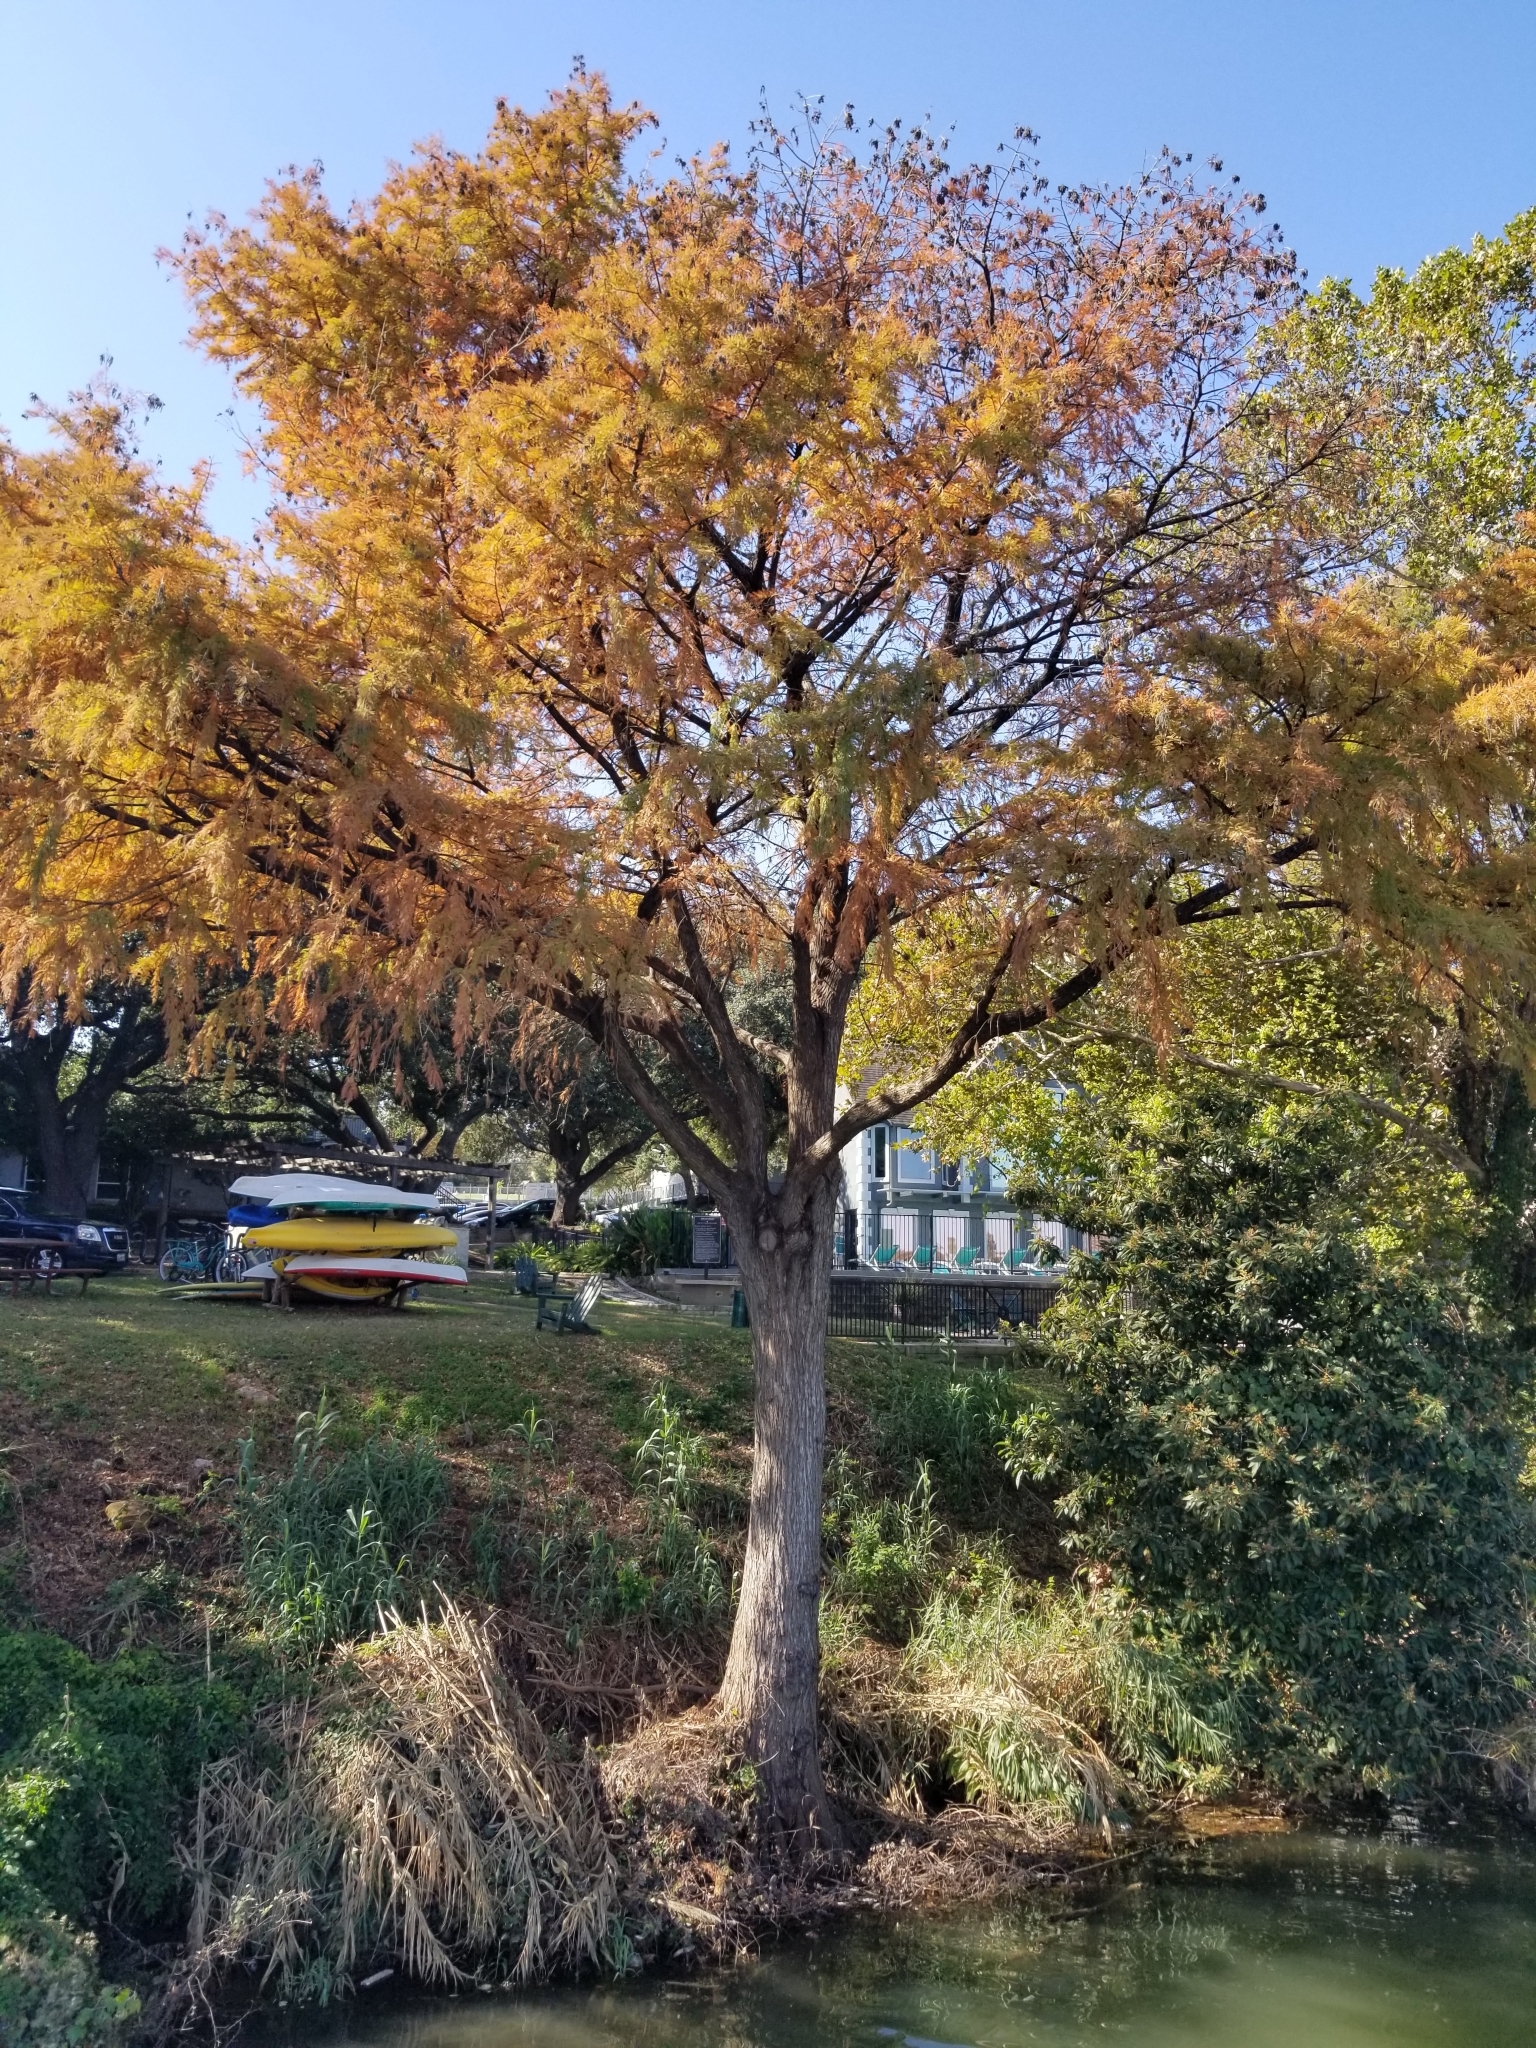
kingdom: Plantae
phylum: Tracheophyta
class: Pinopsida
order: Pinales
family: Cupressaceae
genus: Taxodium
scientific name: Taxodium distichum
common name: Bald cypress
